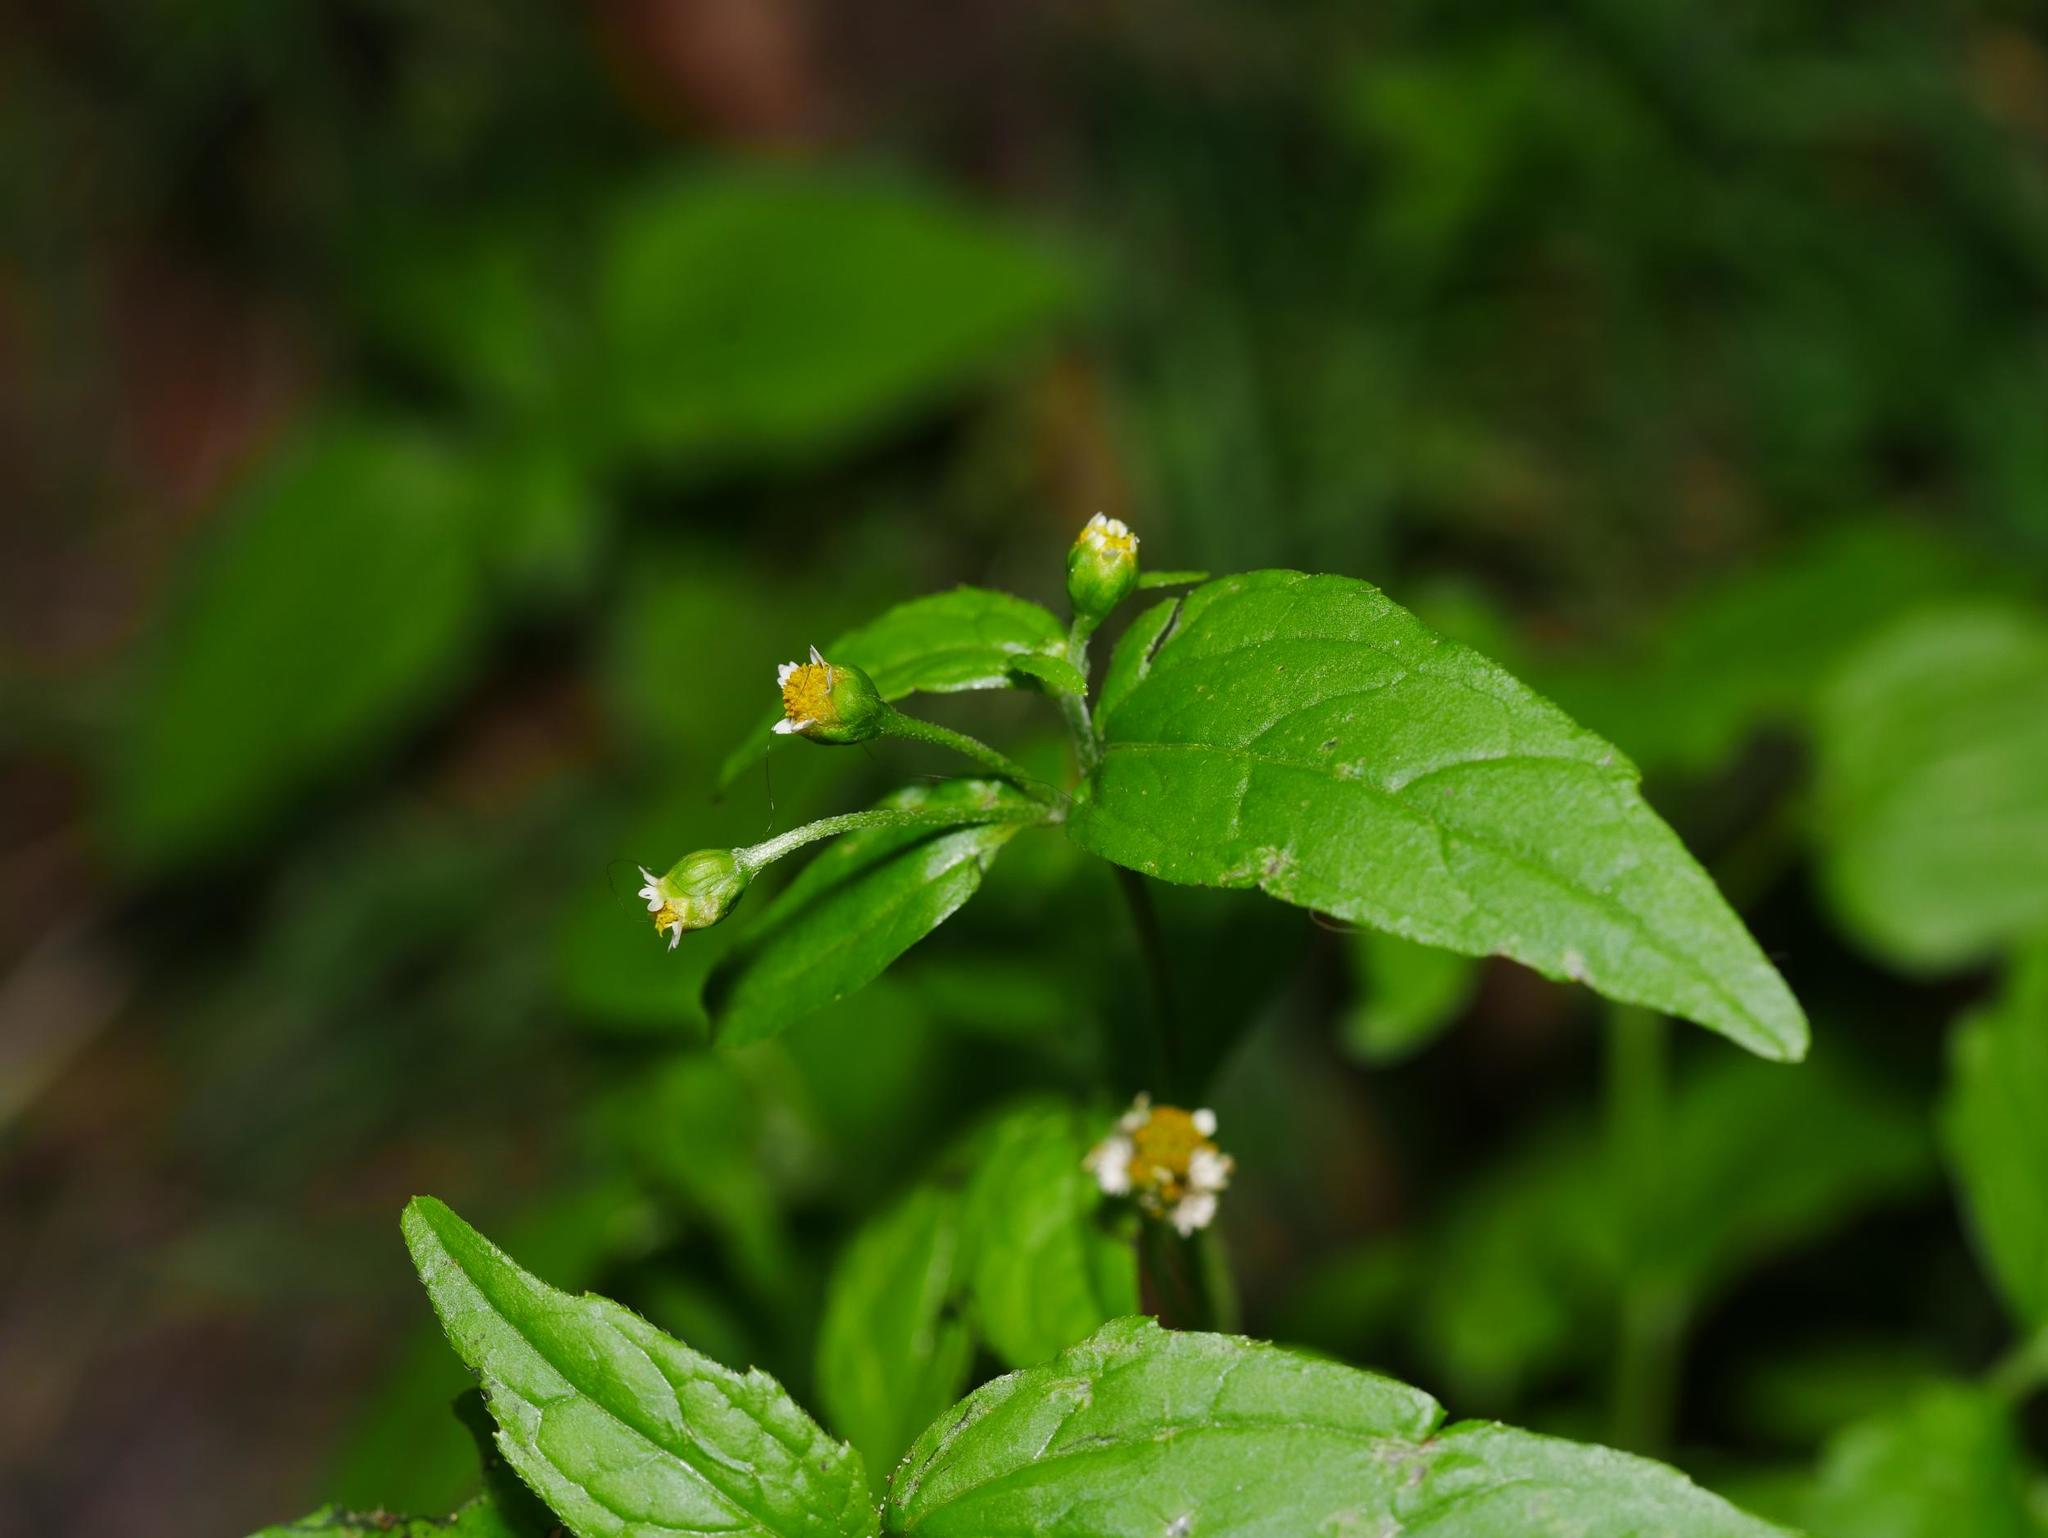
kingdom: Plantae
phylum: Tracheophyta
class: Magnoliopsida
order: Asterales
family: Asteraceae
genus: Galinsoga
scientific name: Galinsoga parviflora
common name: Gallant soldier
